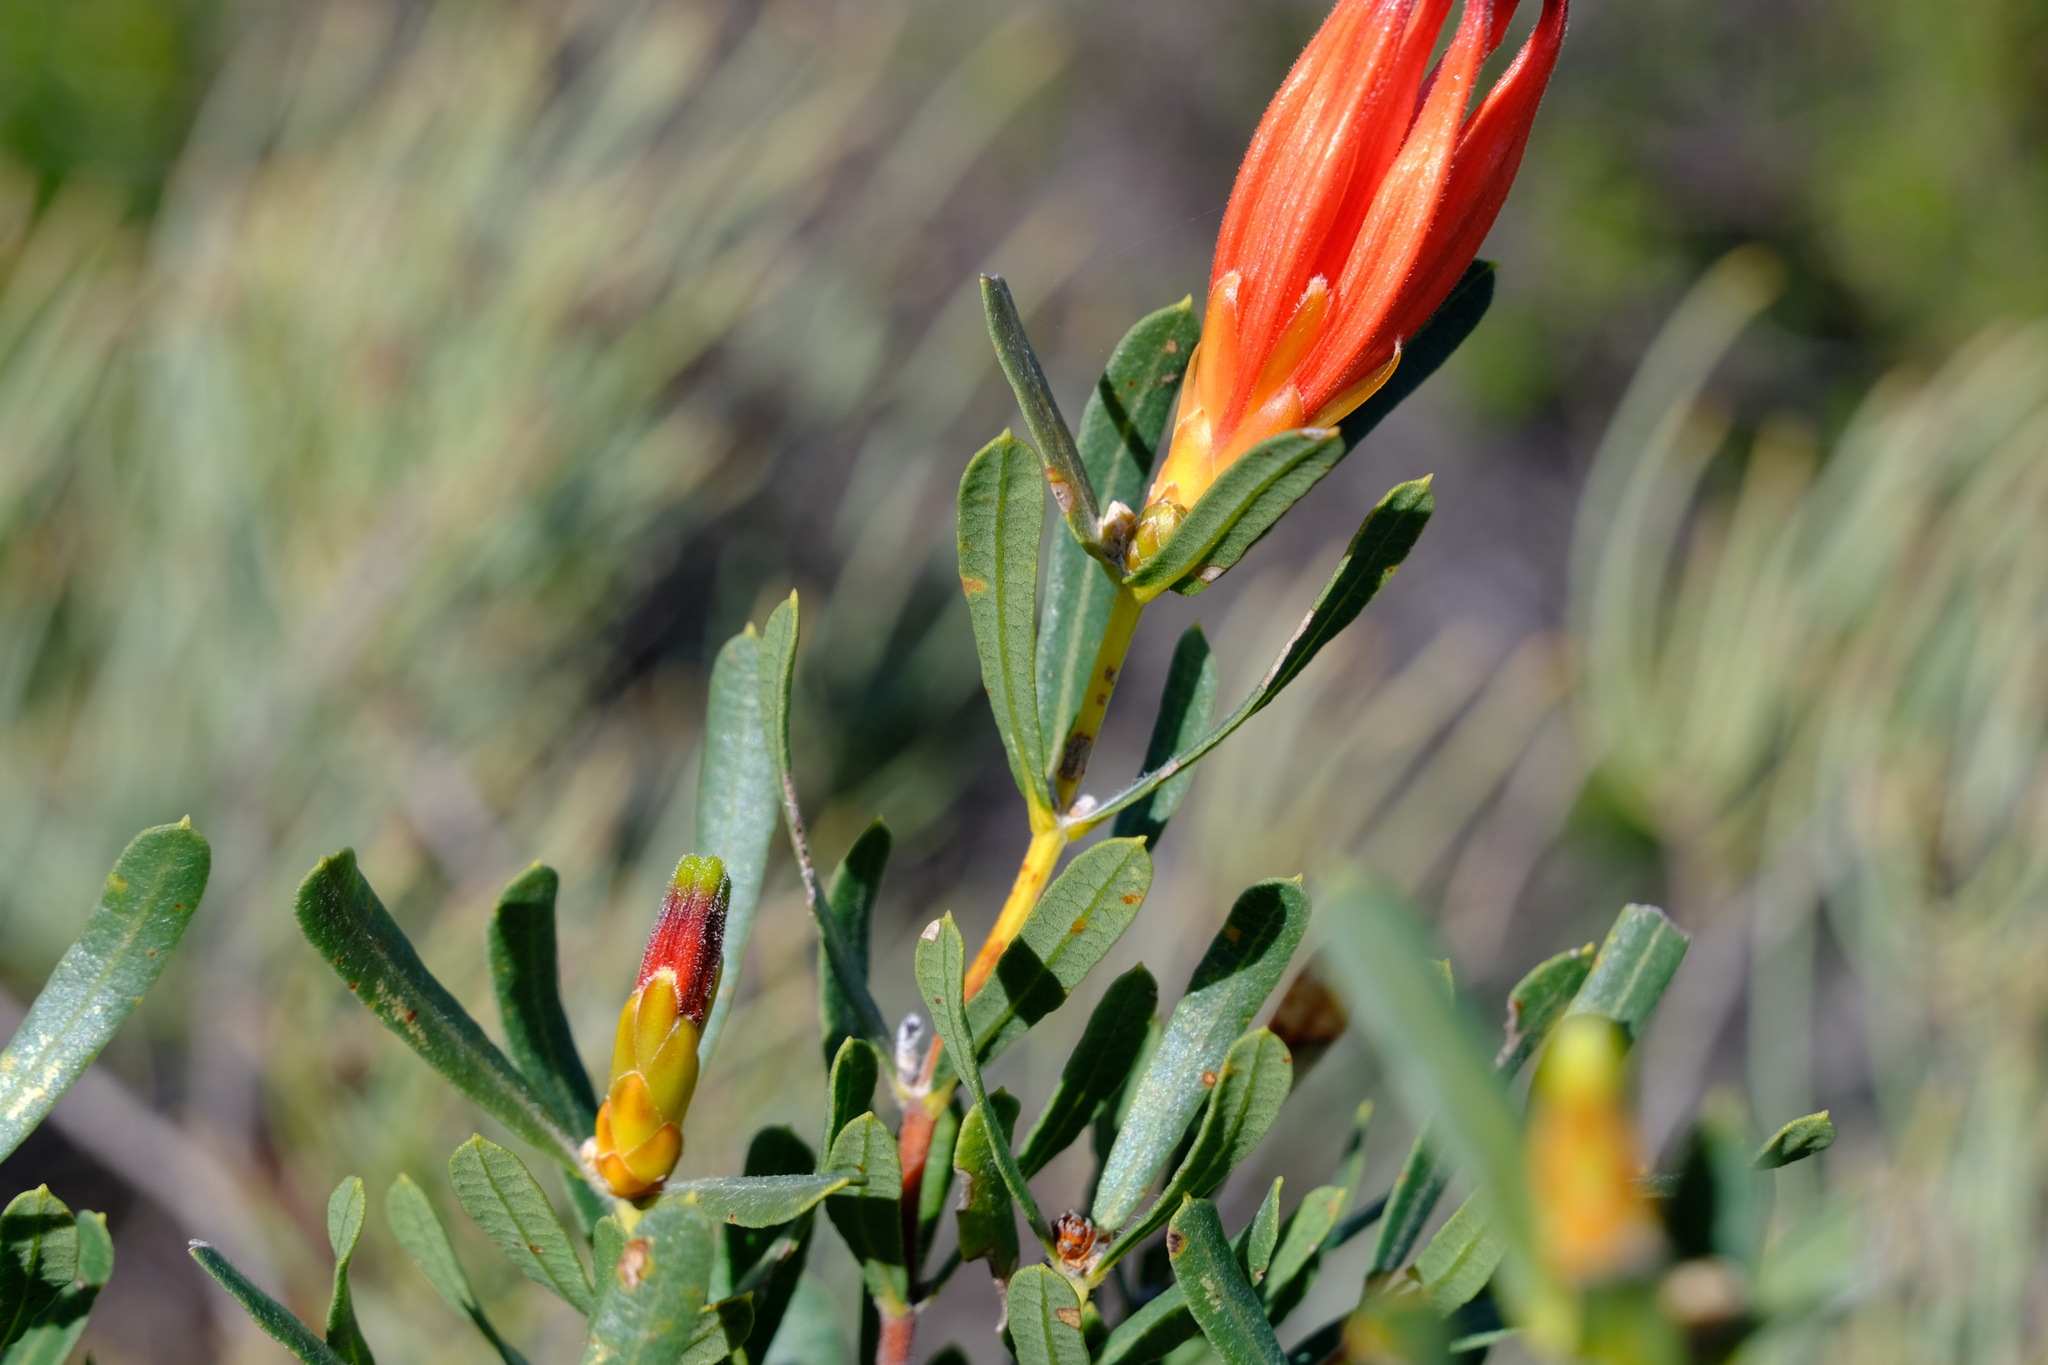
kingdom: Plantae
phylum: Tracheophyta
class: Magnoliopsida
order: Proteales
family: Proteaceae
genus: Lambertia
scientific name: Lambertia multiflora
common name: Many-flowered honeysuckle
